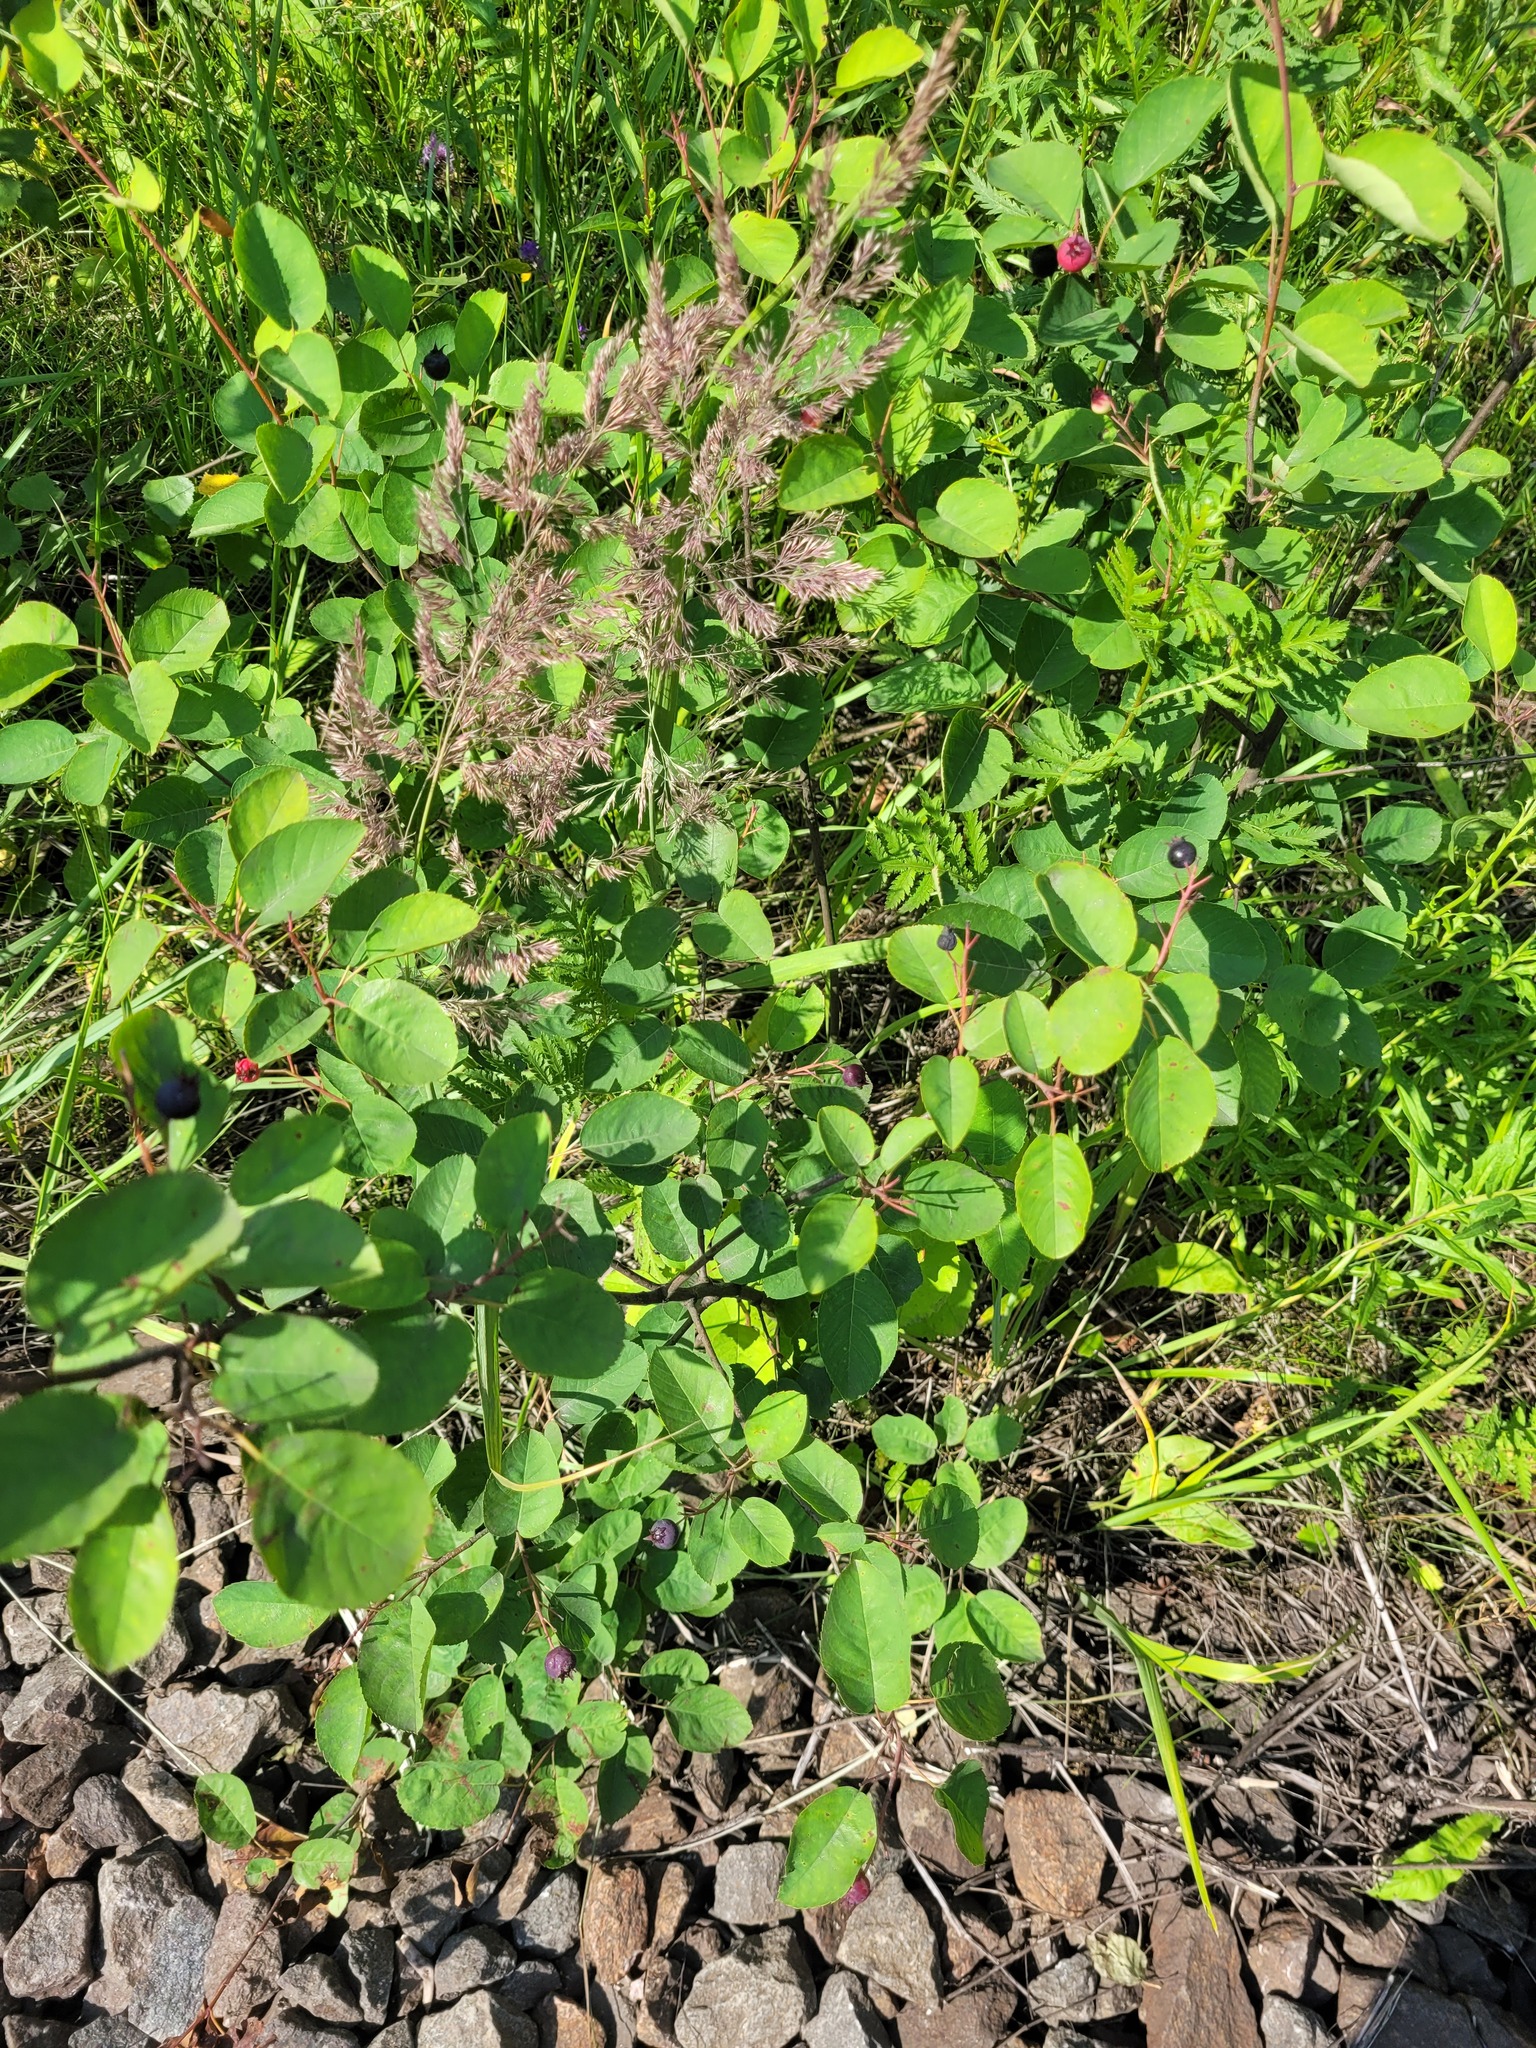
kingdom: Plantae
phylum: Tracheophyta
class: Magnoliopsida
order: Rosales
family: Rosaceae
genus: Amelanchier
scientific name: Amelanchier
